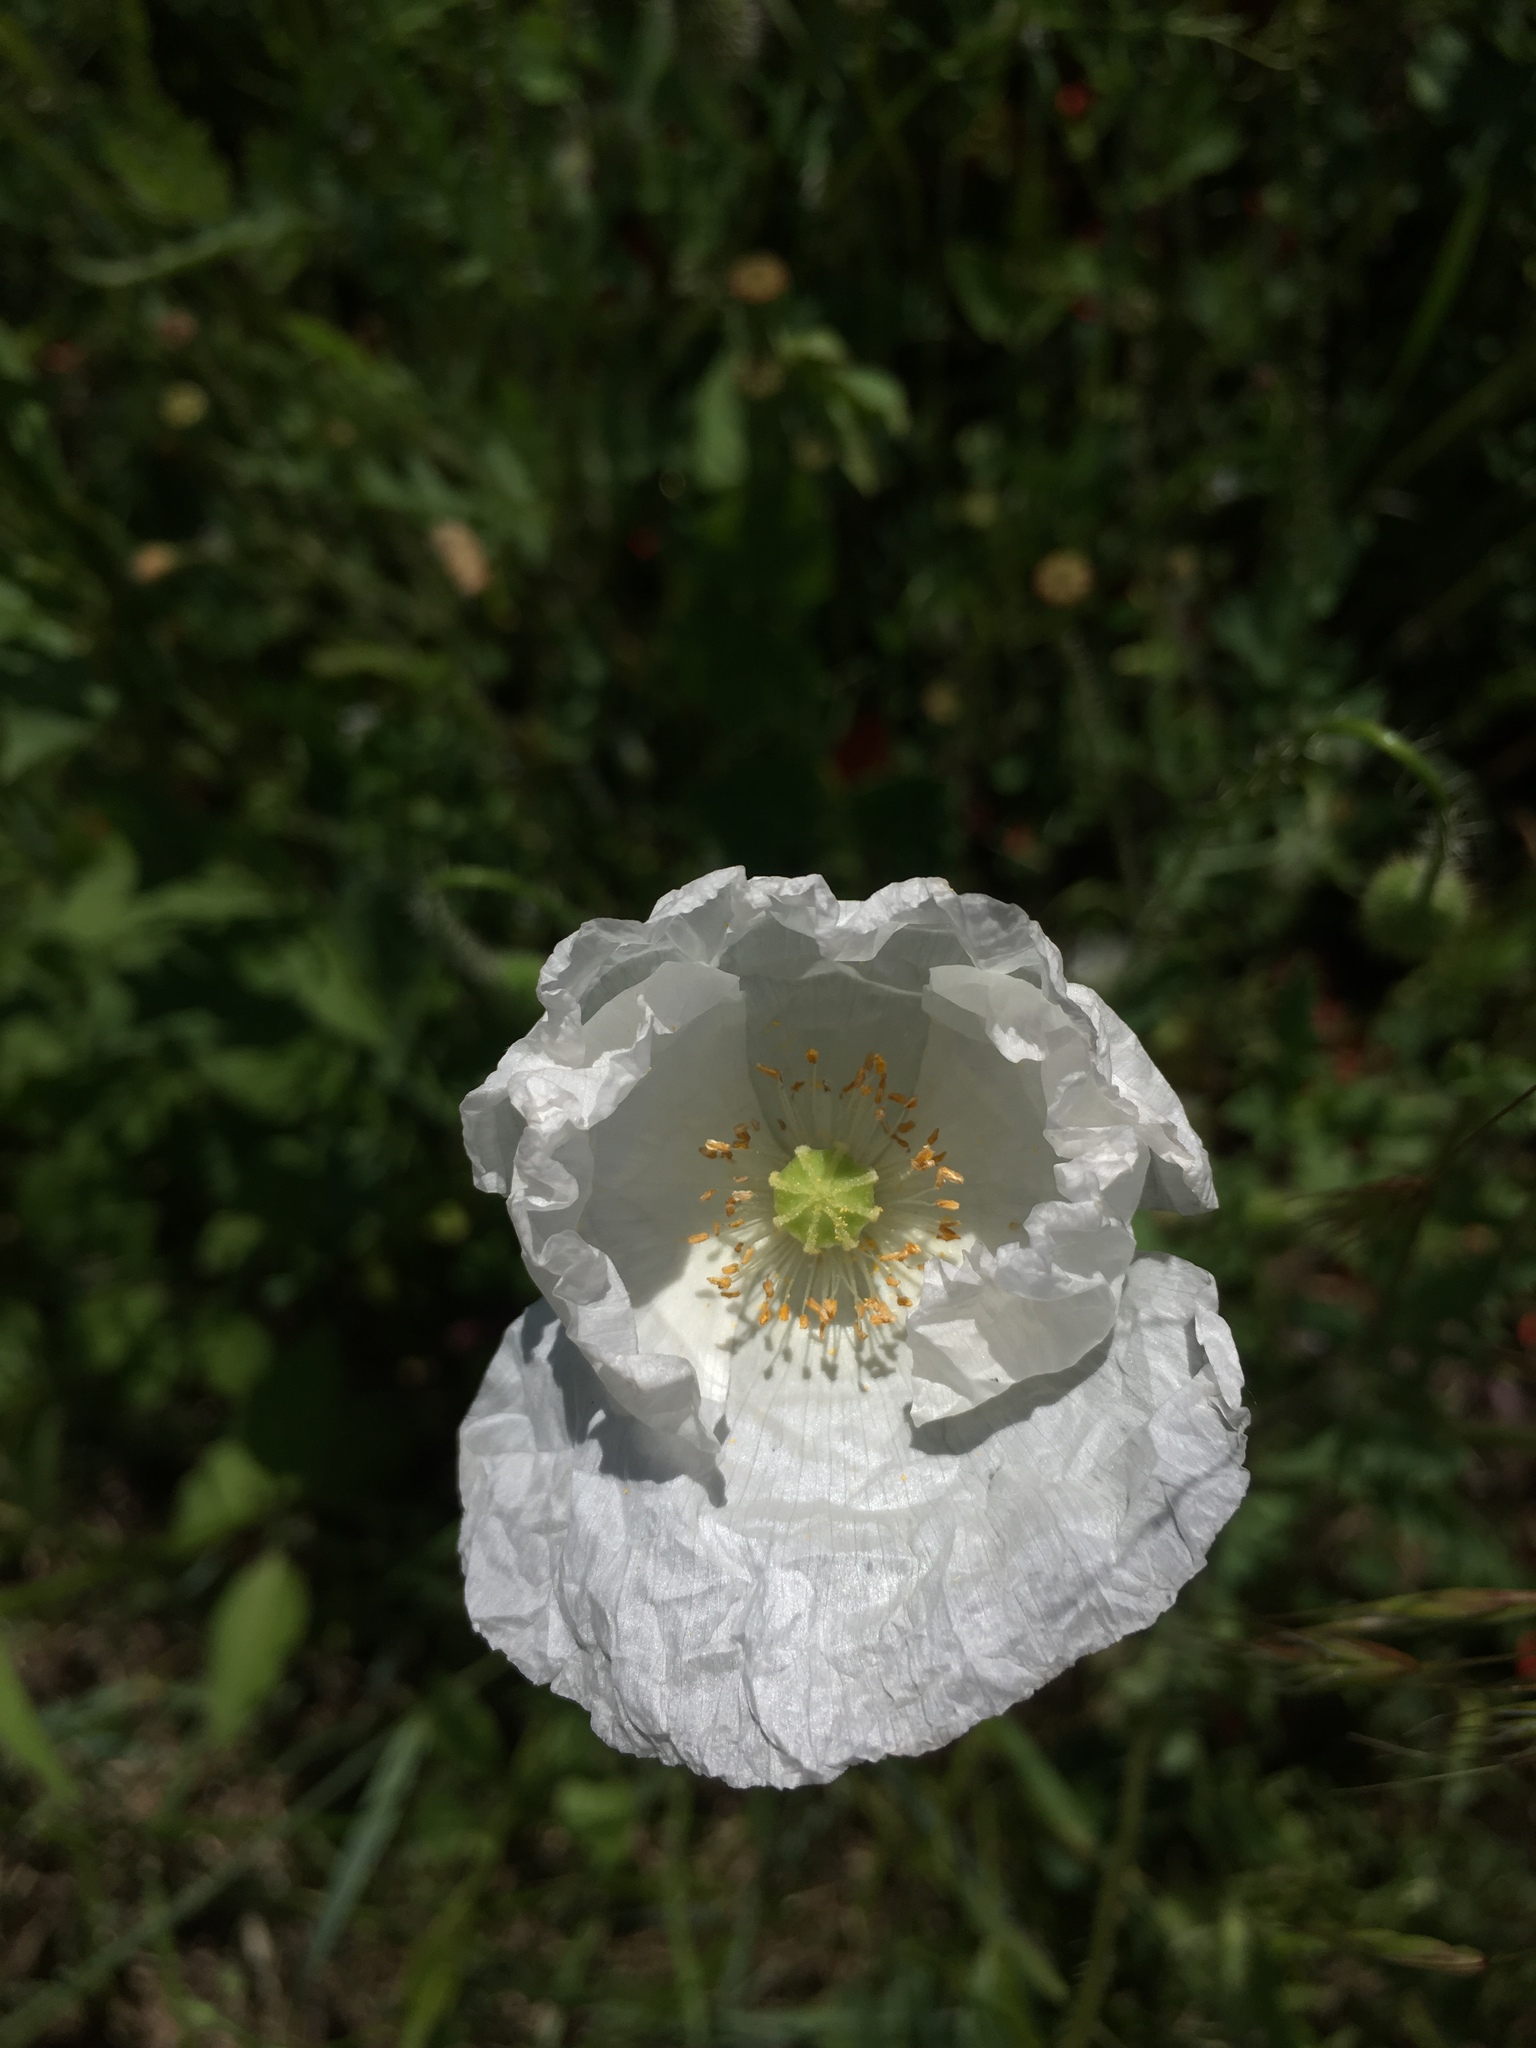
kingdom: Plantae
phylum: Tracheophyta
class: Magnoliopsida
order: Ranunculales
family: Papaveraceae
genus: Papaver
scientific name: Papaver rhoeas
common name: Corn poppy
